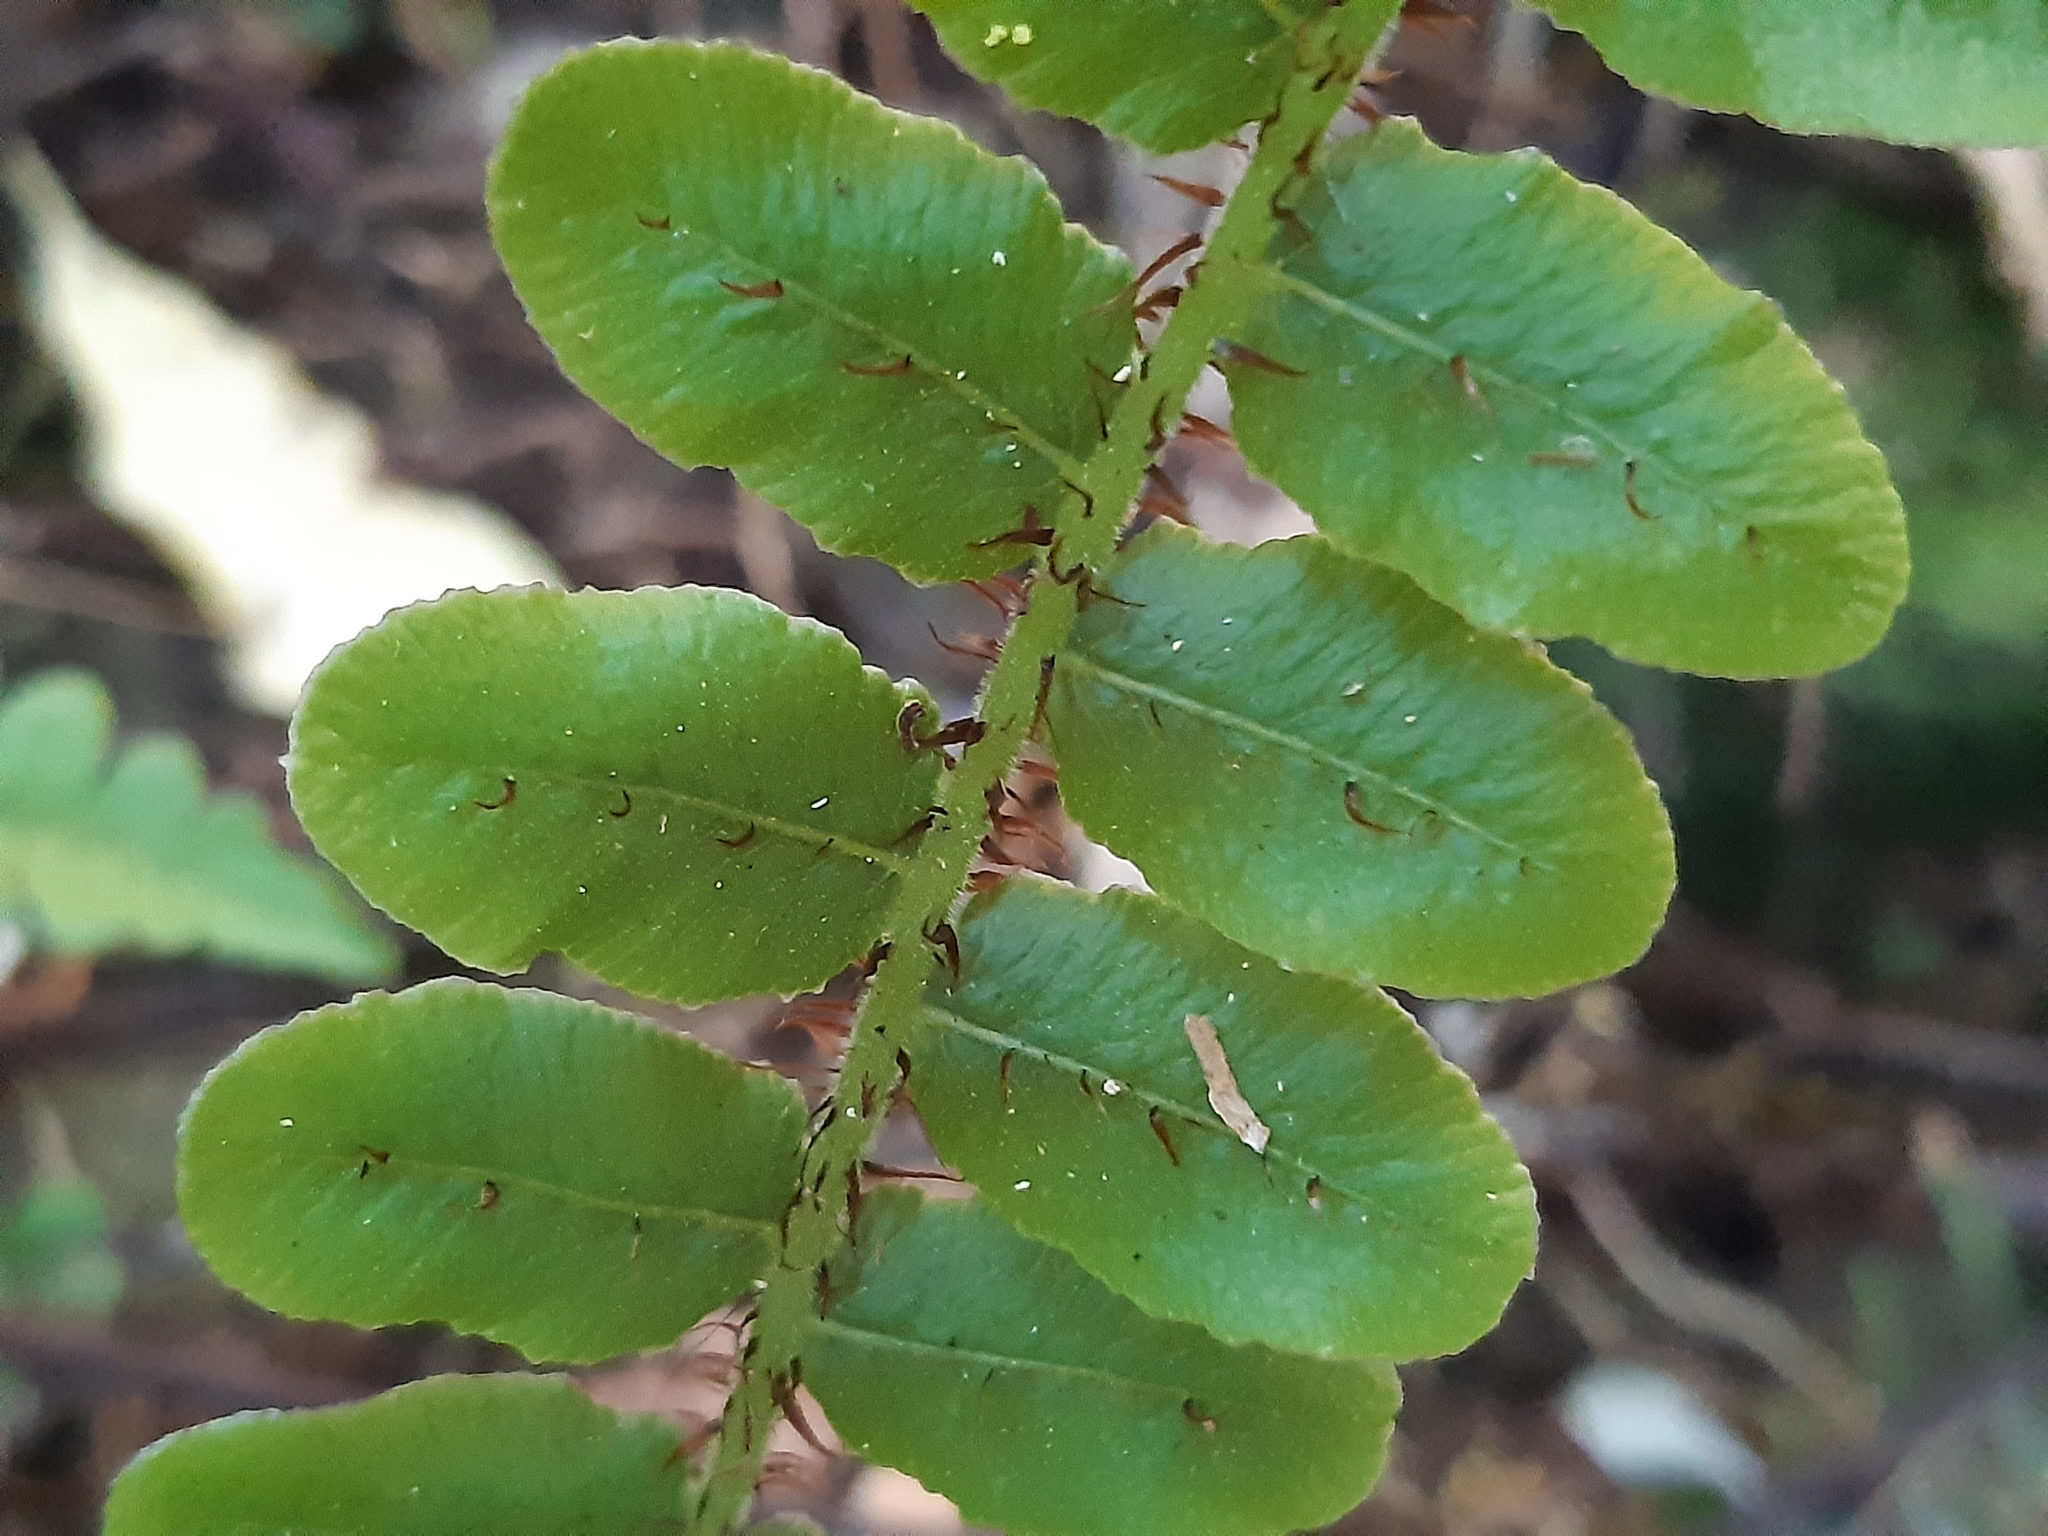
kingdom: Plantae
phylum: Tracheophyta
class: Polypodiopsida
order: Polypodiales
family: Blechnaceae
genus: Cranfillia
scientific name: Cranfillia fluviatilis
